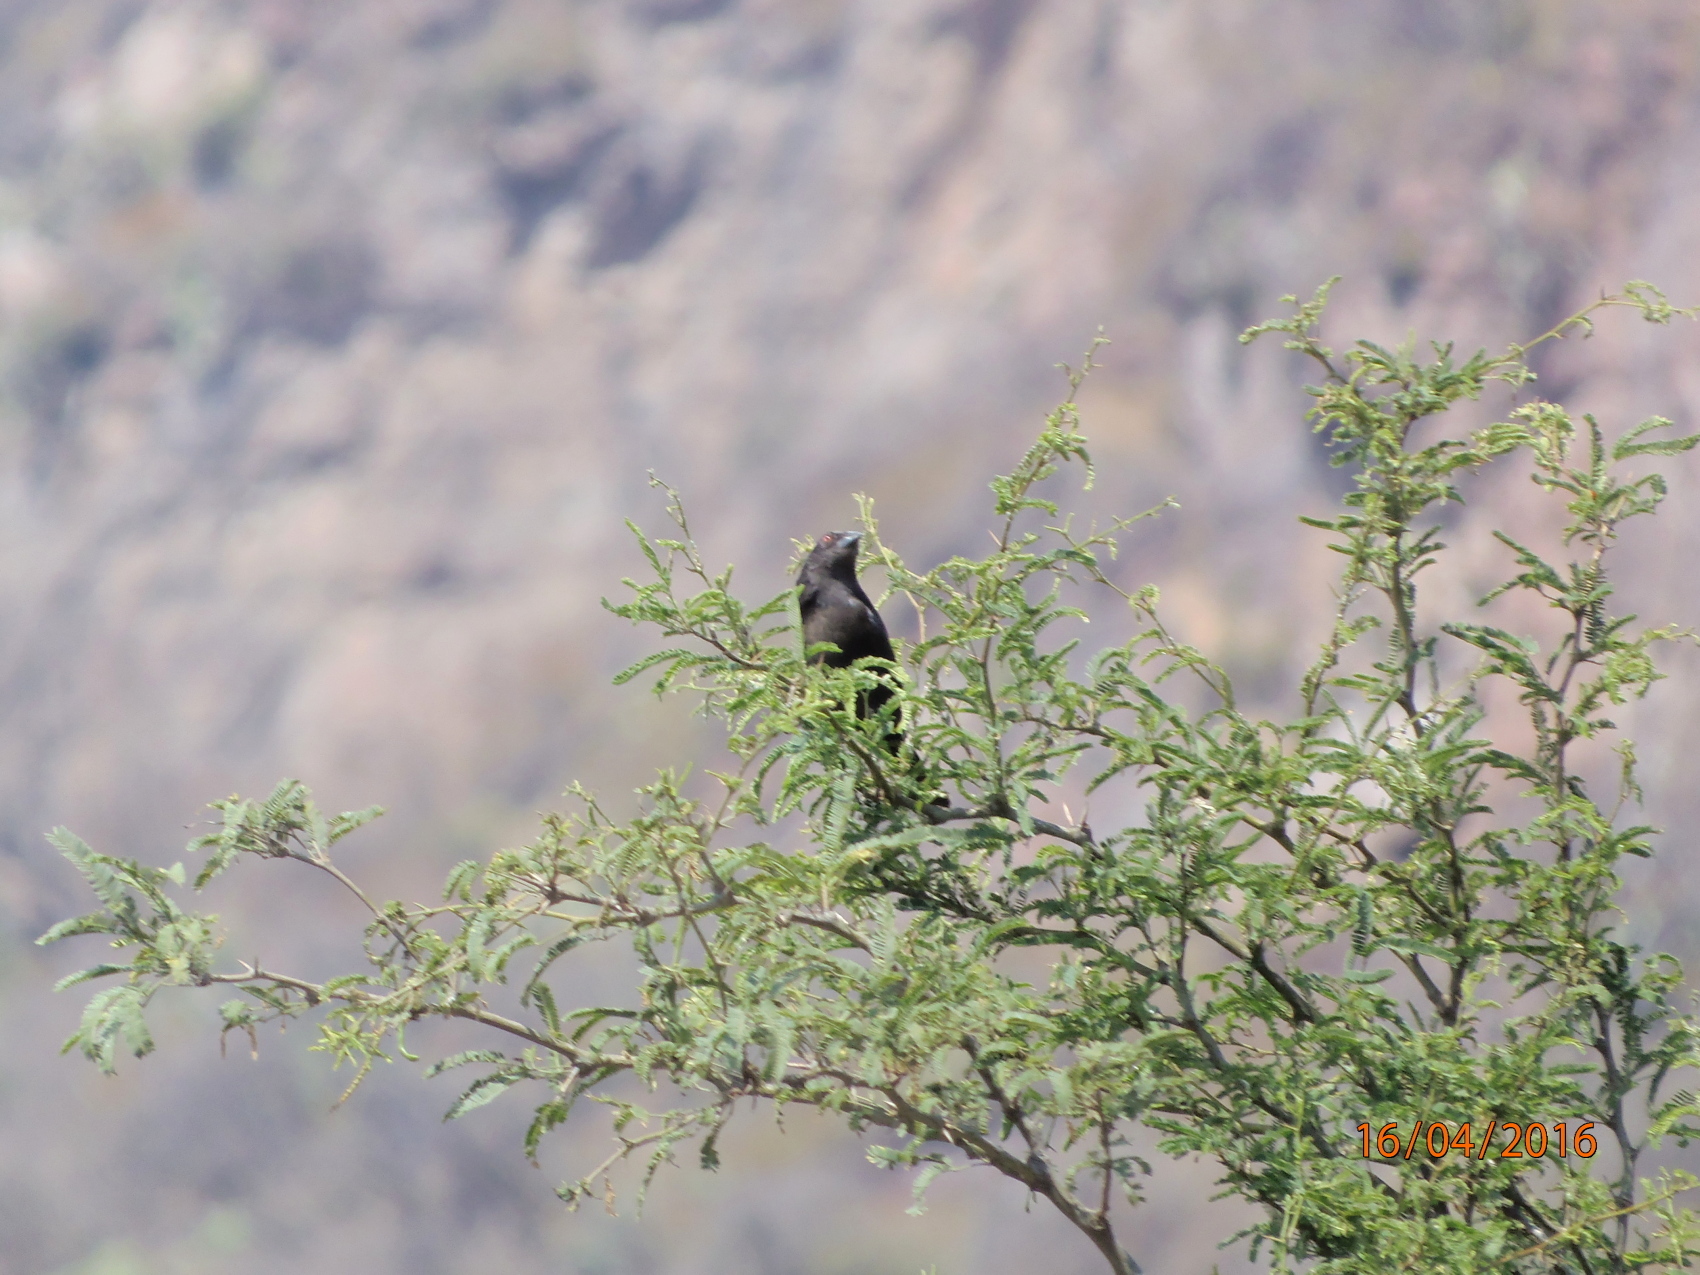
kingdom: Animalia
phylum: Chordata
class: Aves
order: Passeriformes
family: Icteridae
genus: Molothrus
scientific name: Molothrus aeneus
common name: Bronzed cowbird
